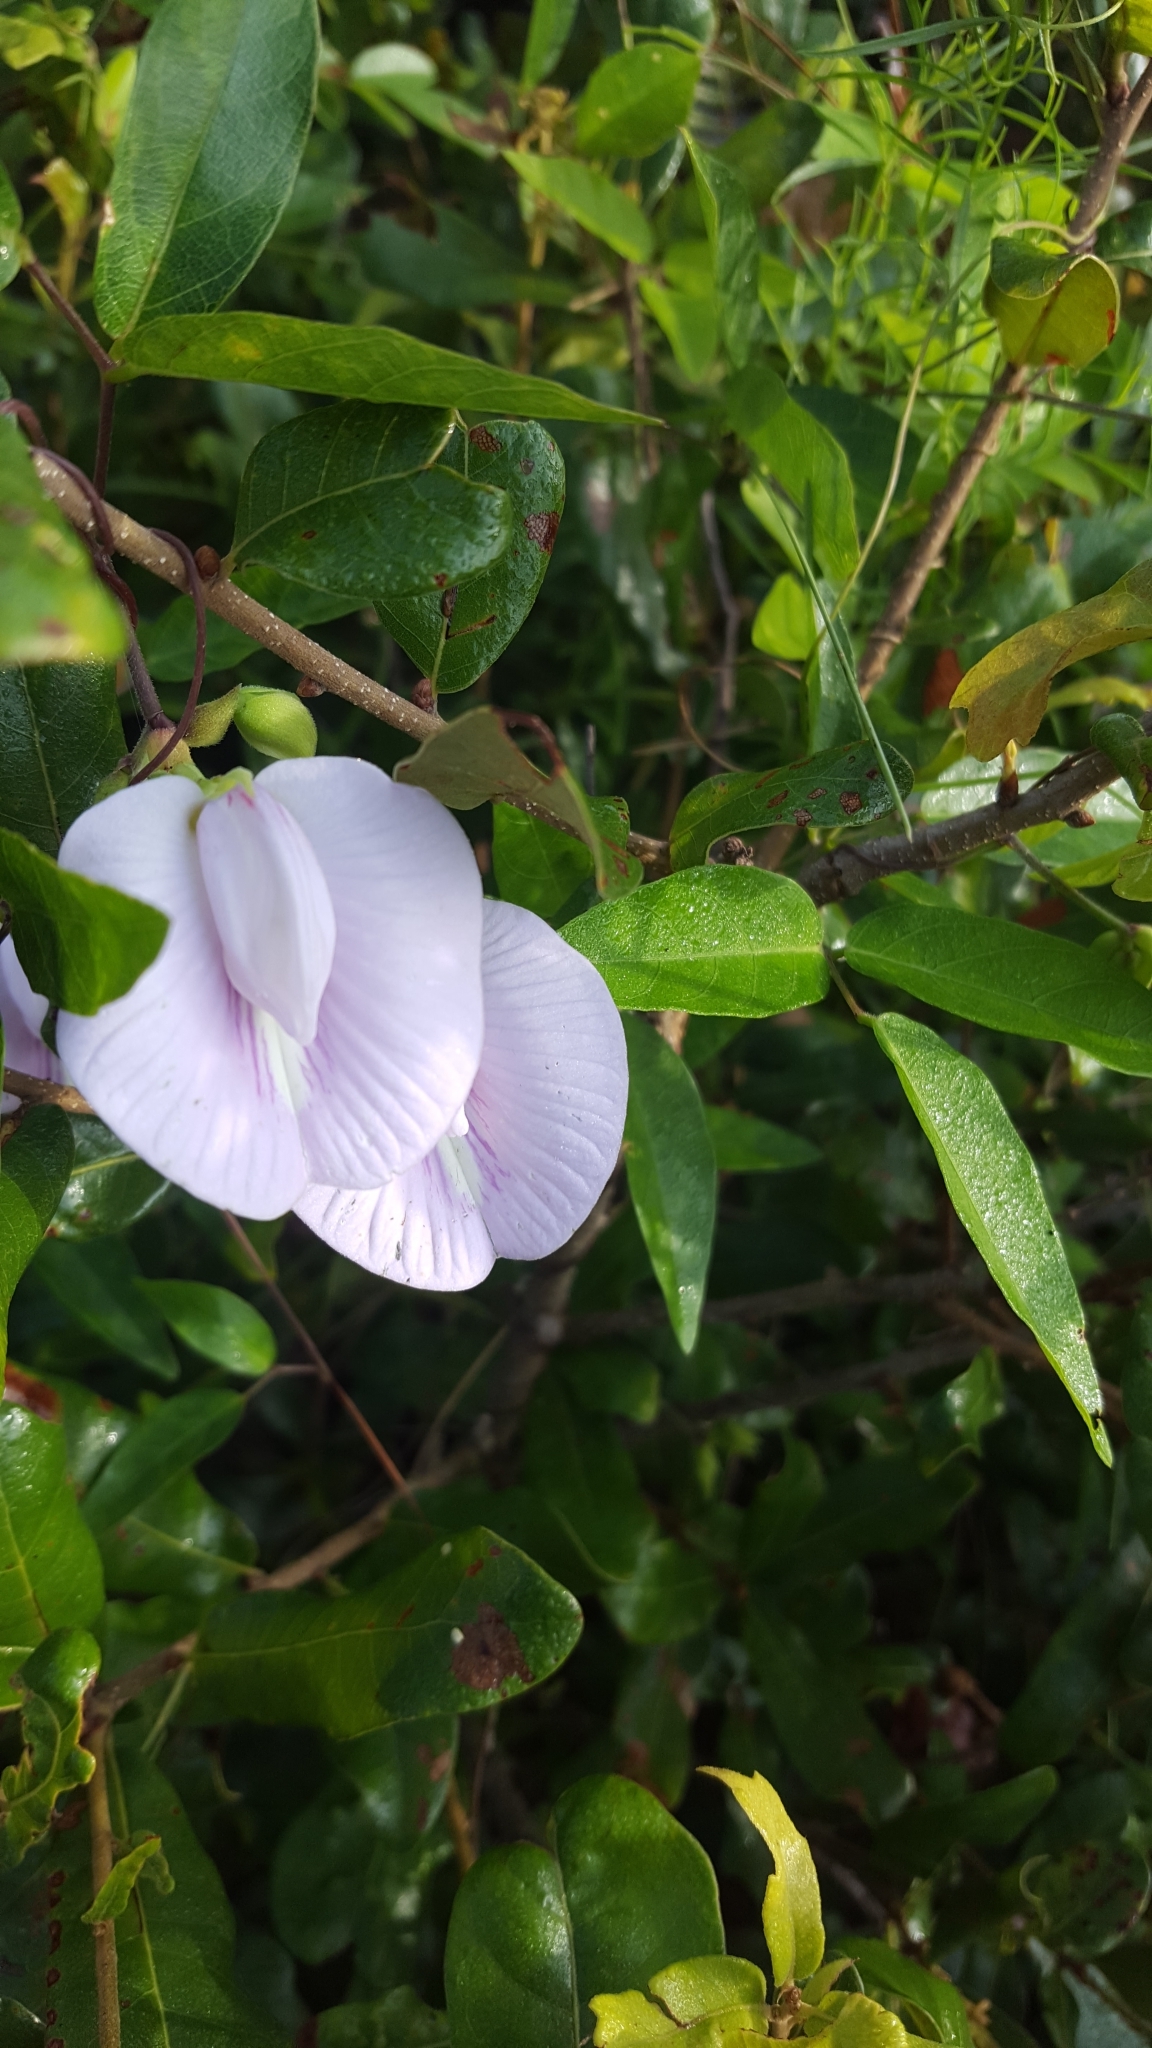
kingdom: Plantae
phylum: Tracheophyta
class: Magnoliopsida
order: Fabales
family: Fabaceae
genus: Centrosema
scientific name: Centrosema virginianum
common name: Butterfly-pea
